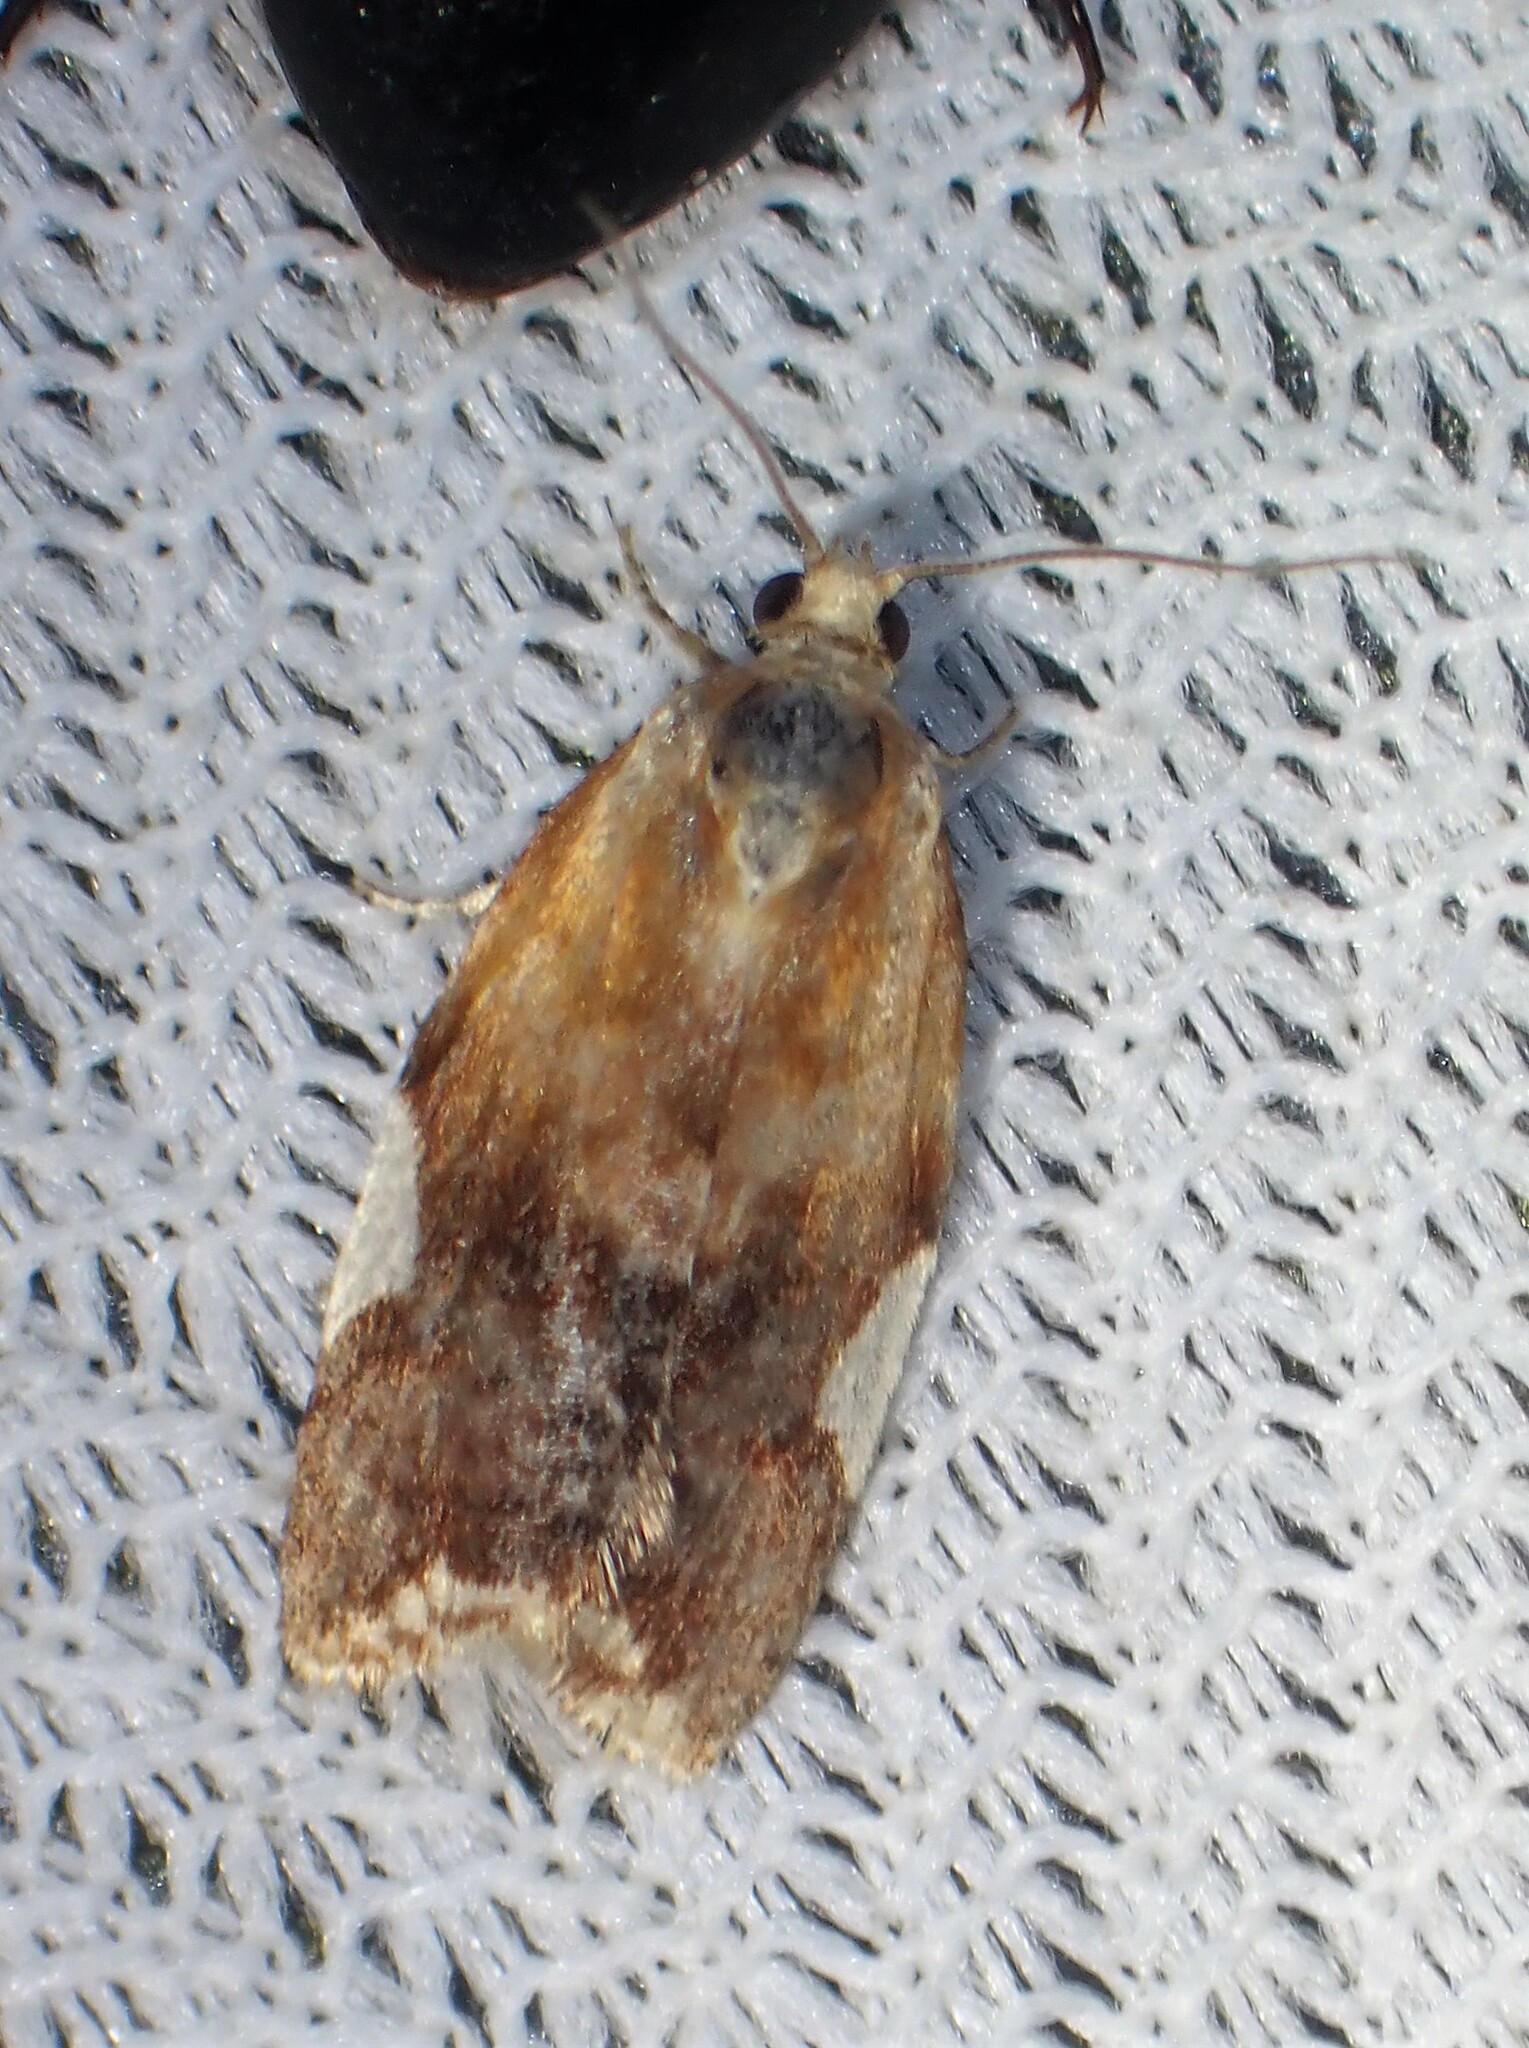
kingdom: Animalia
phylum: Arthropoda
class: Insecta
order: Lepidoptera
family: Tortricidae
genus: Clepsis
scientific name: Clepsis persicana
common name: White triangle tortrix
